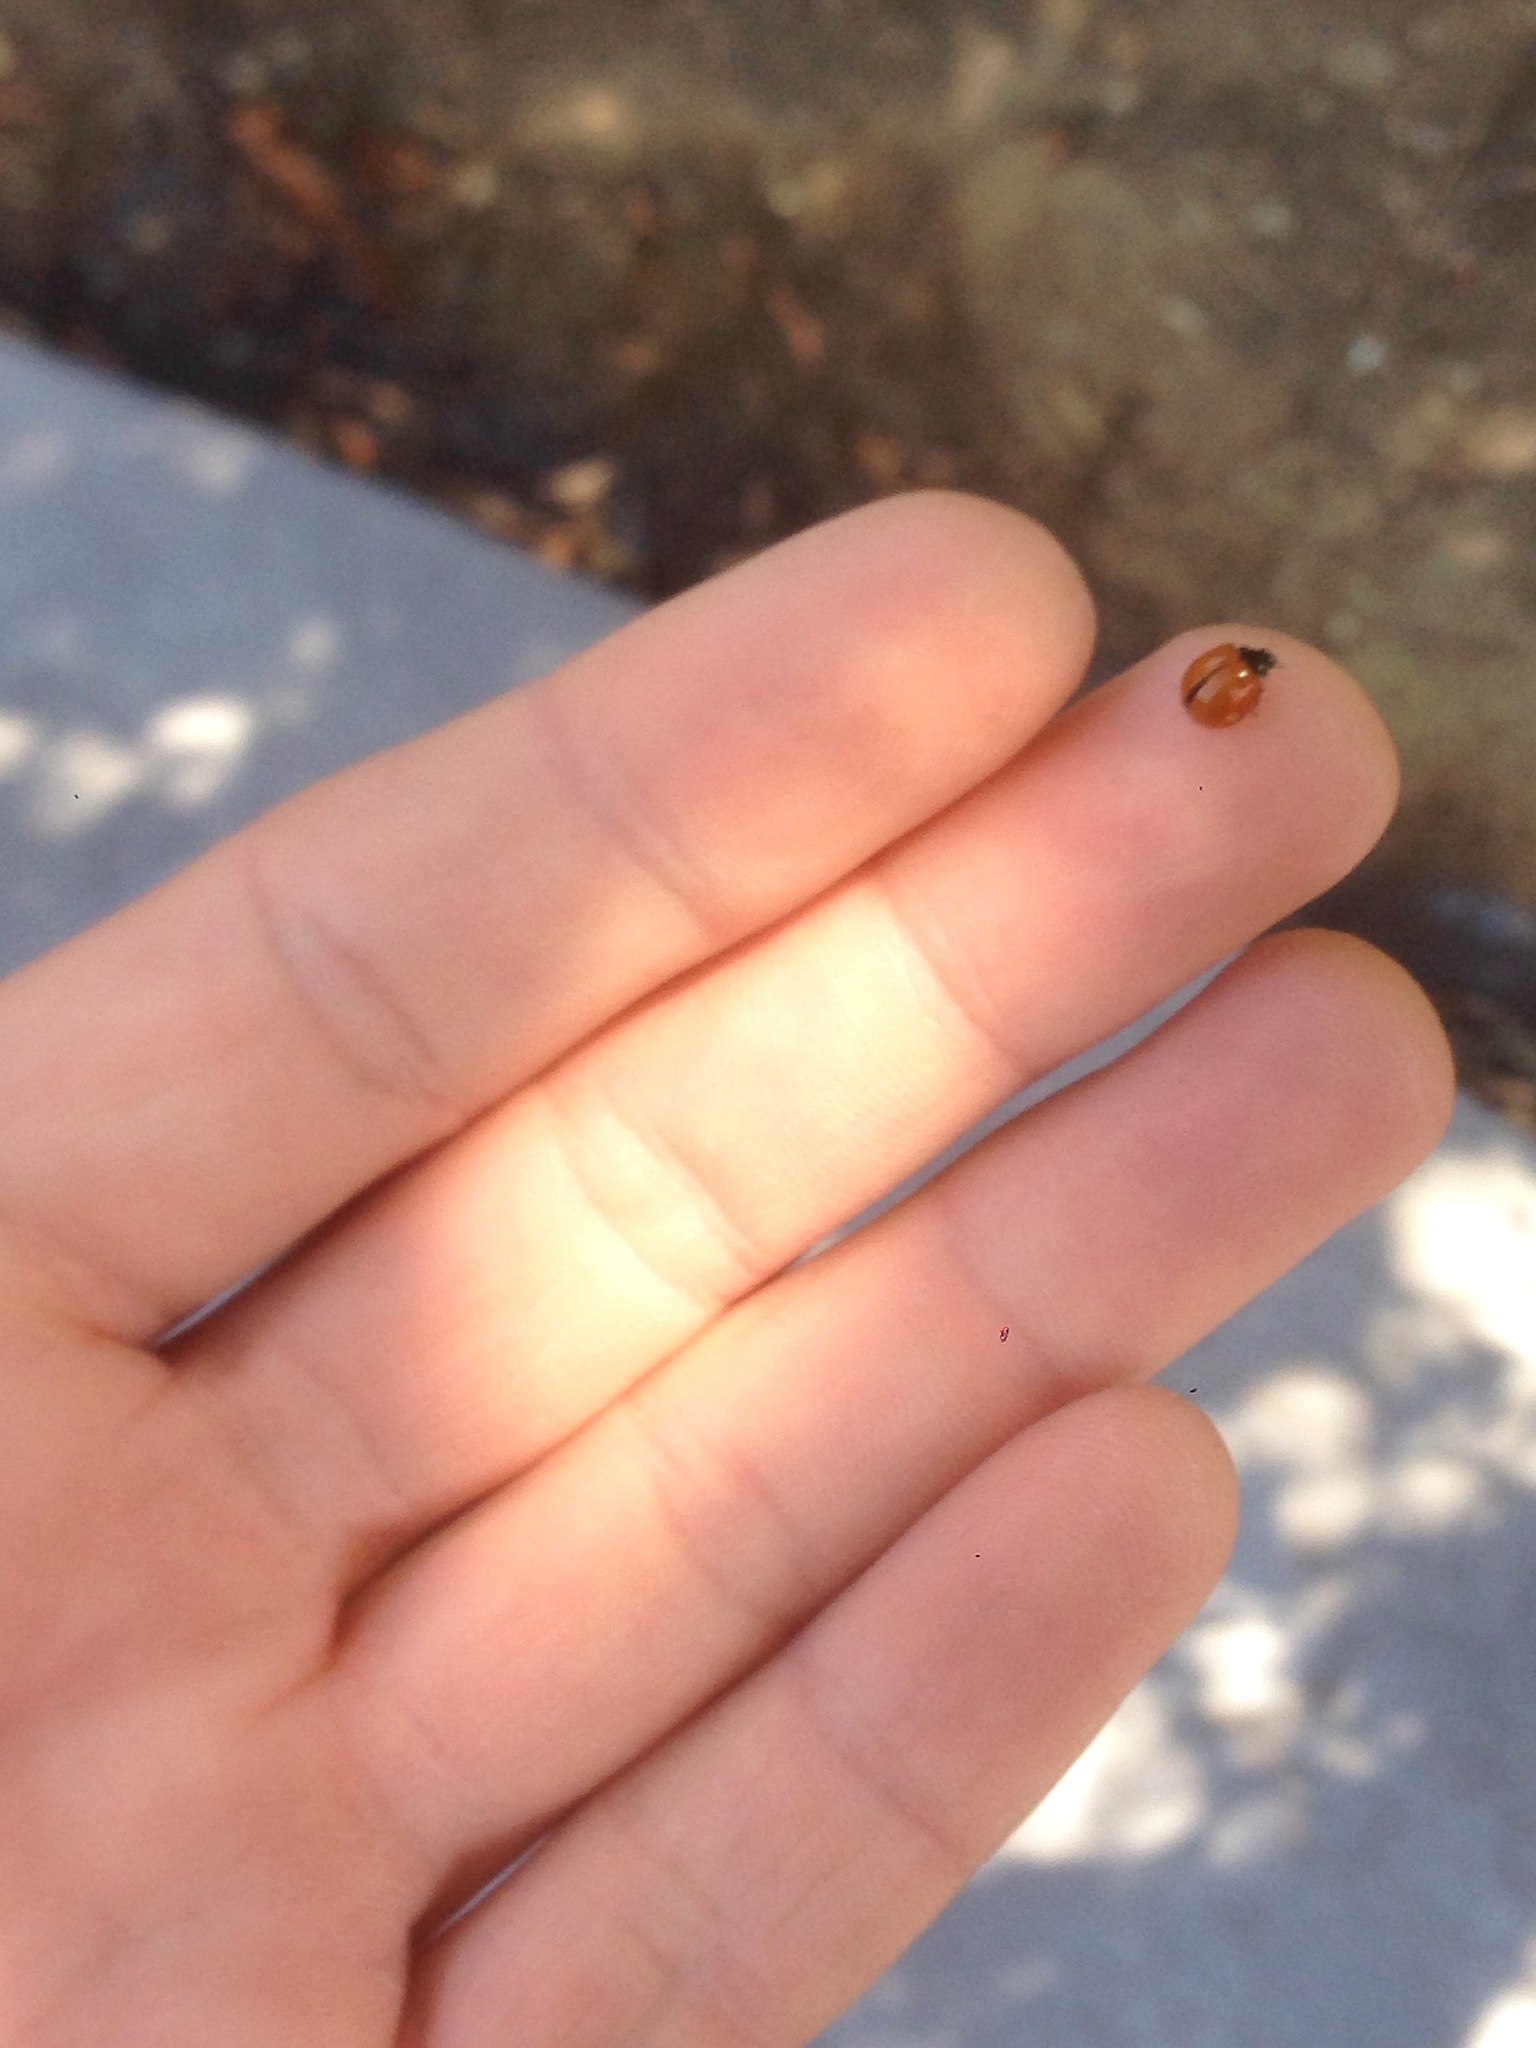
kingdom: Animalia
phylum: Arthropoda
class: Insecta
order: Coleoptera
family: Coccinellidae
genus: Cycloneda
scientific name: Cycloneda sanguinea
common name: Ladybird beetle
